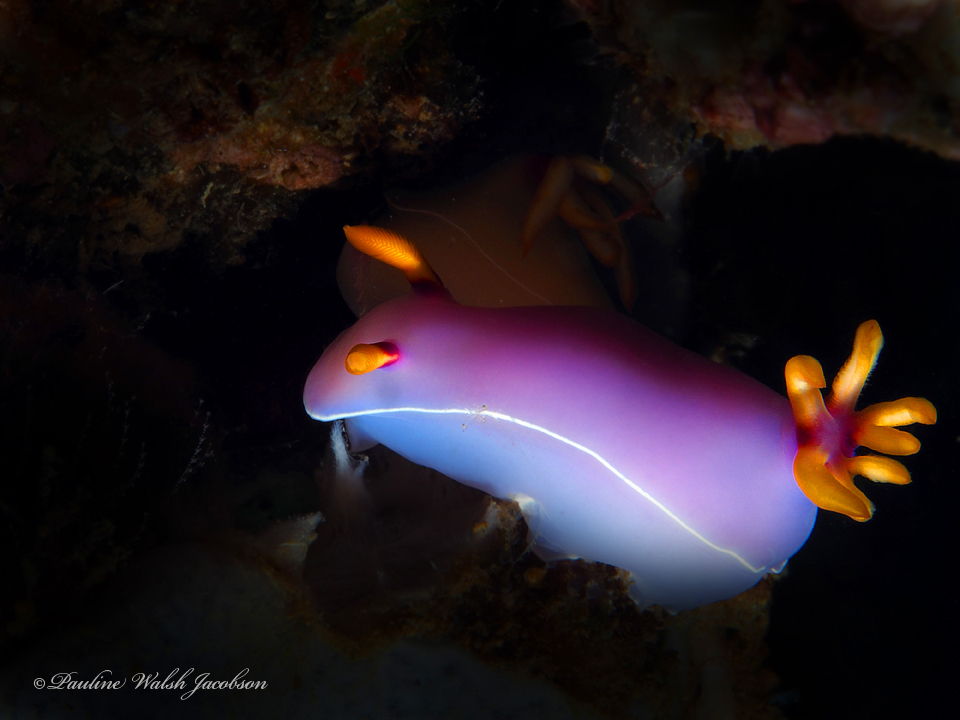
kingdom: Animalia
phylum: Mollusca
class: Gastropoda
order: Nudibranchia
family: Chromodorididae
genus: Hypselodoris
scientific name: Hypselodoris bullockii
